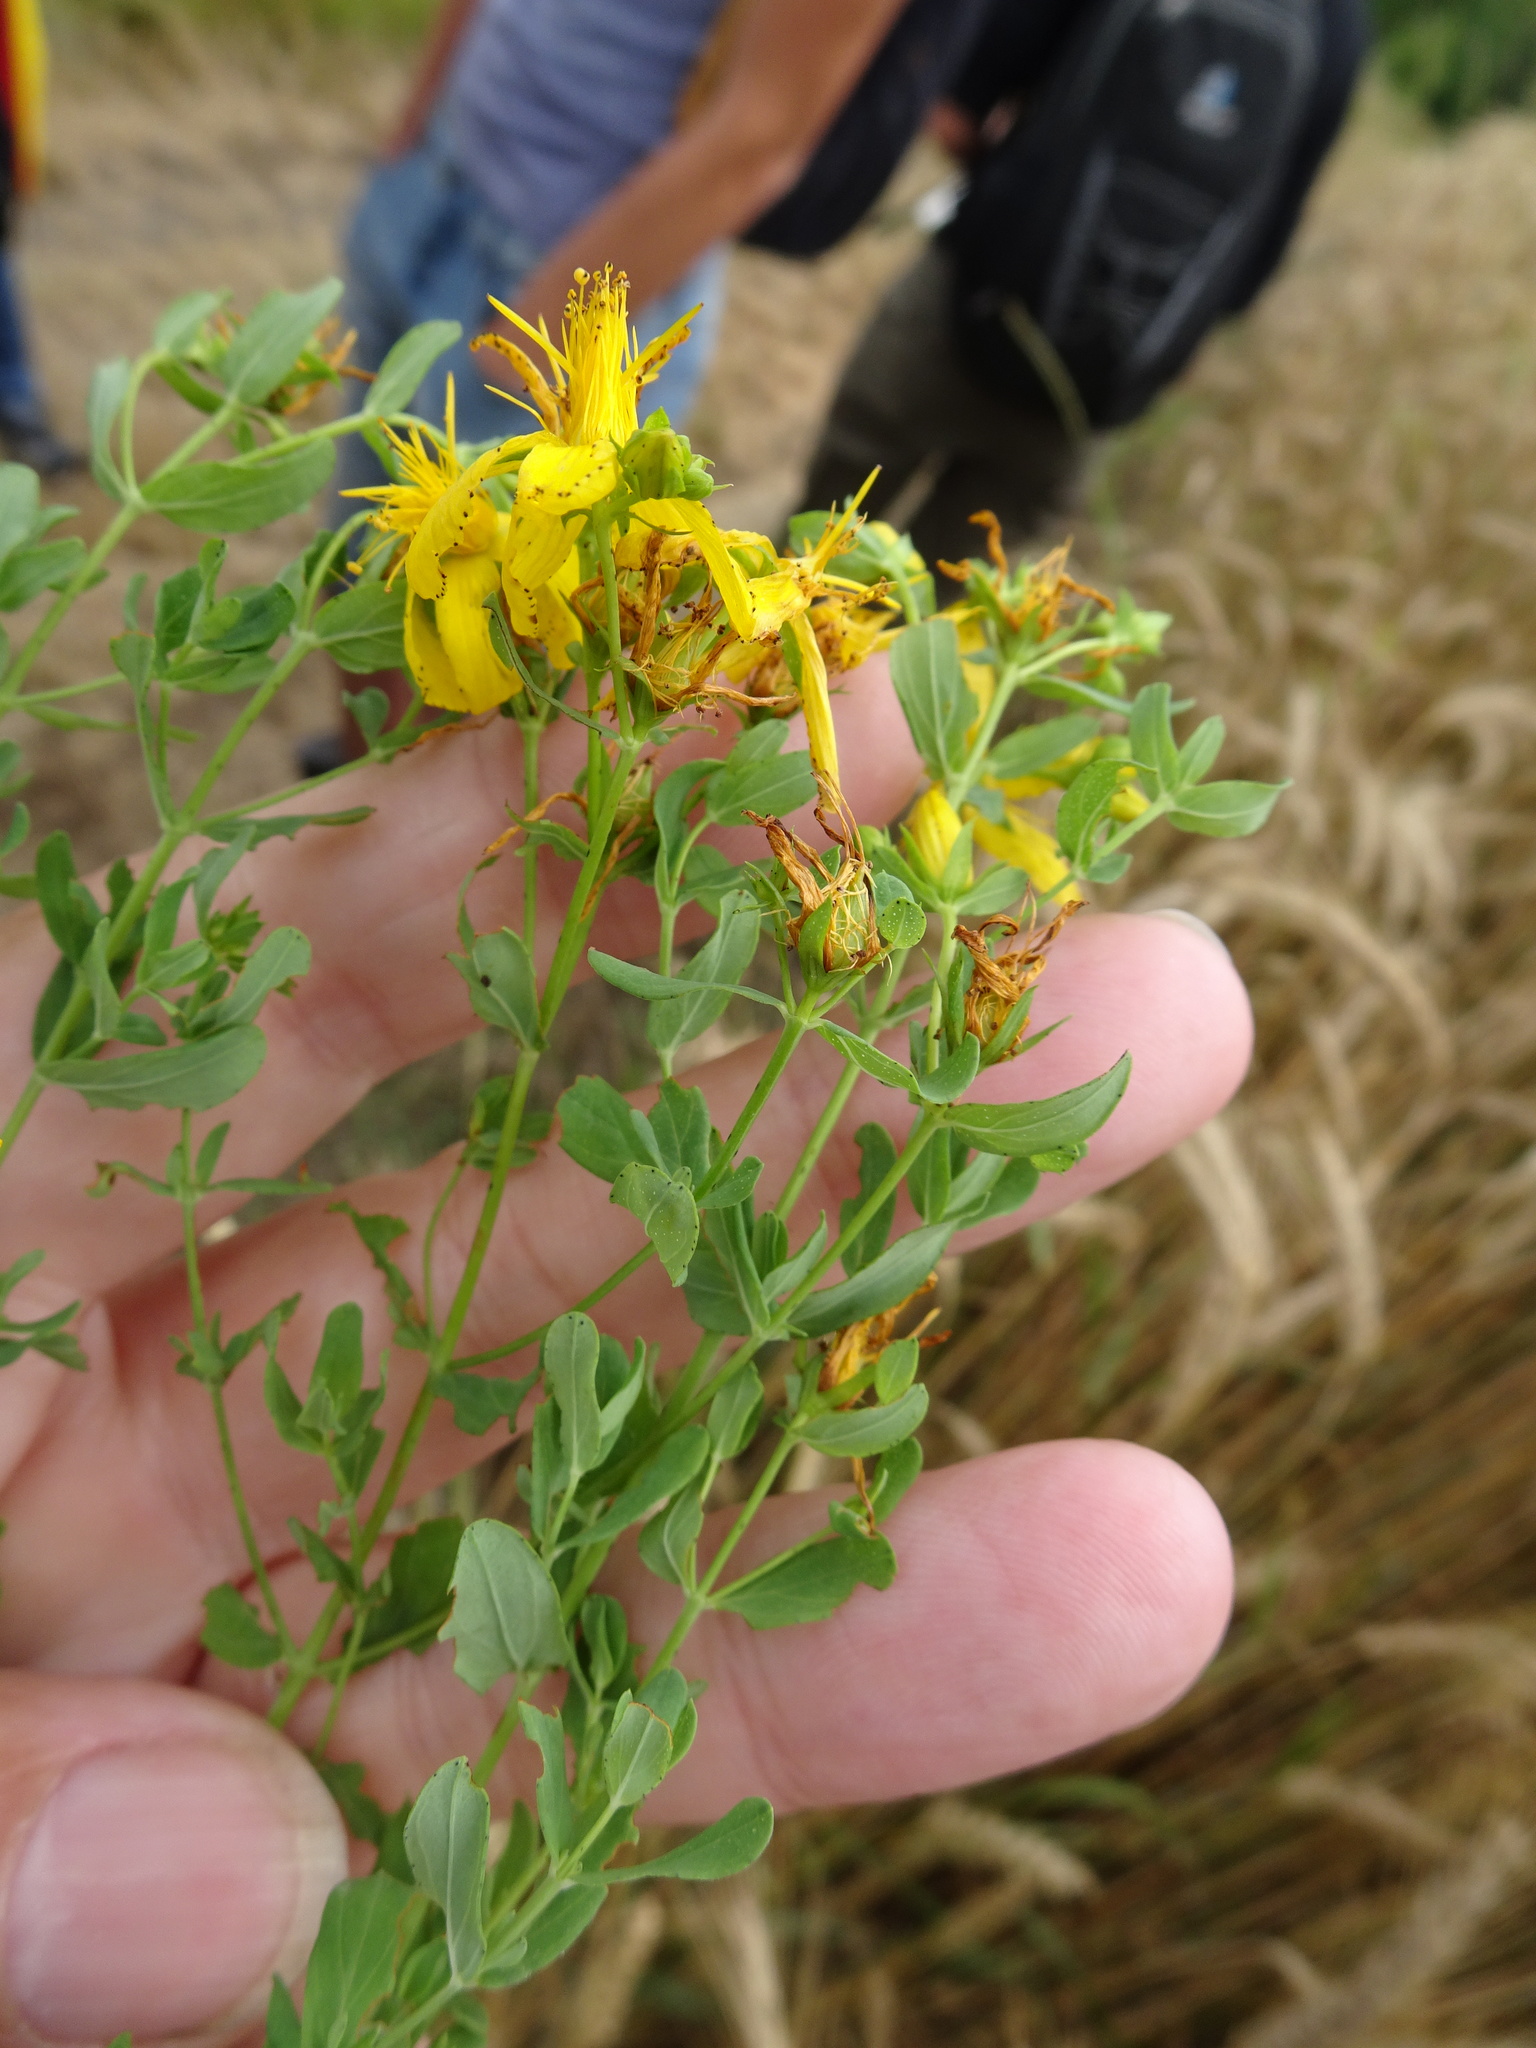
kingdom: Plantae
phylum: Tracheophyta
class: Magnoliopsida
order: Malpighiales
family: Hypericaceae
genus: Hypericum
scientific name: Hypericum perforatum
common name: Common st. johnswort
